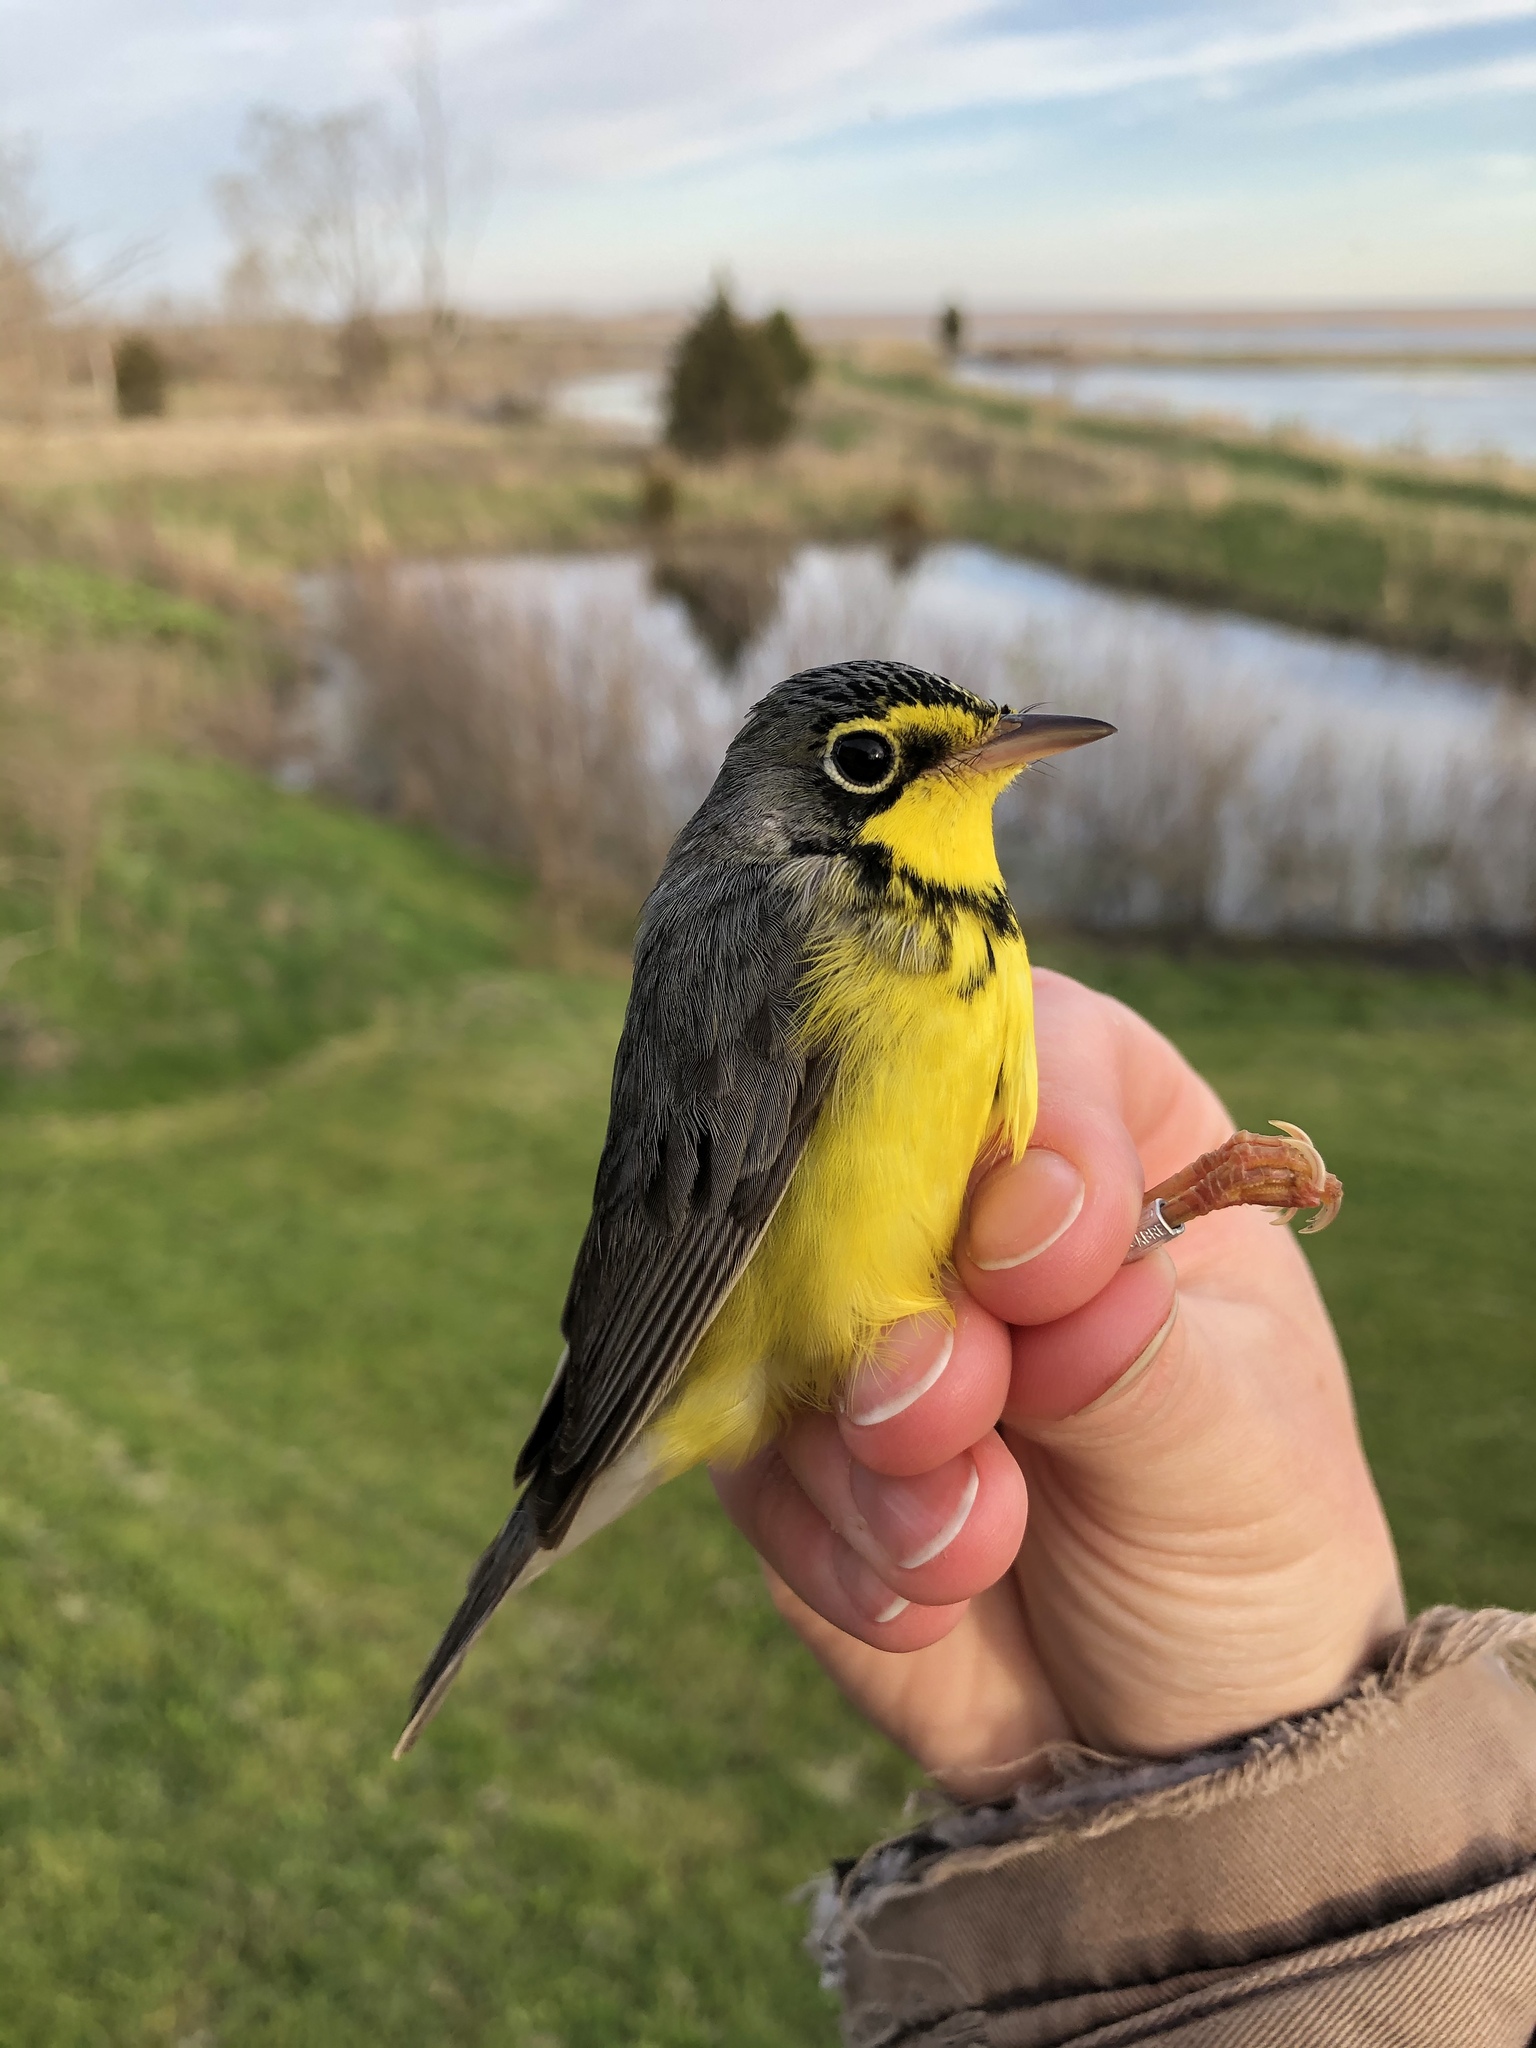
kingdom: Animalia
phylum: Chordata
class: Aves
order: Passeriformes
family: Parulidae
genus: Cardellina
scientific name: Cardellina canadensis
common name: Canada warbler
